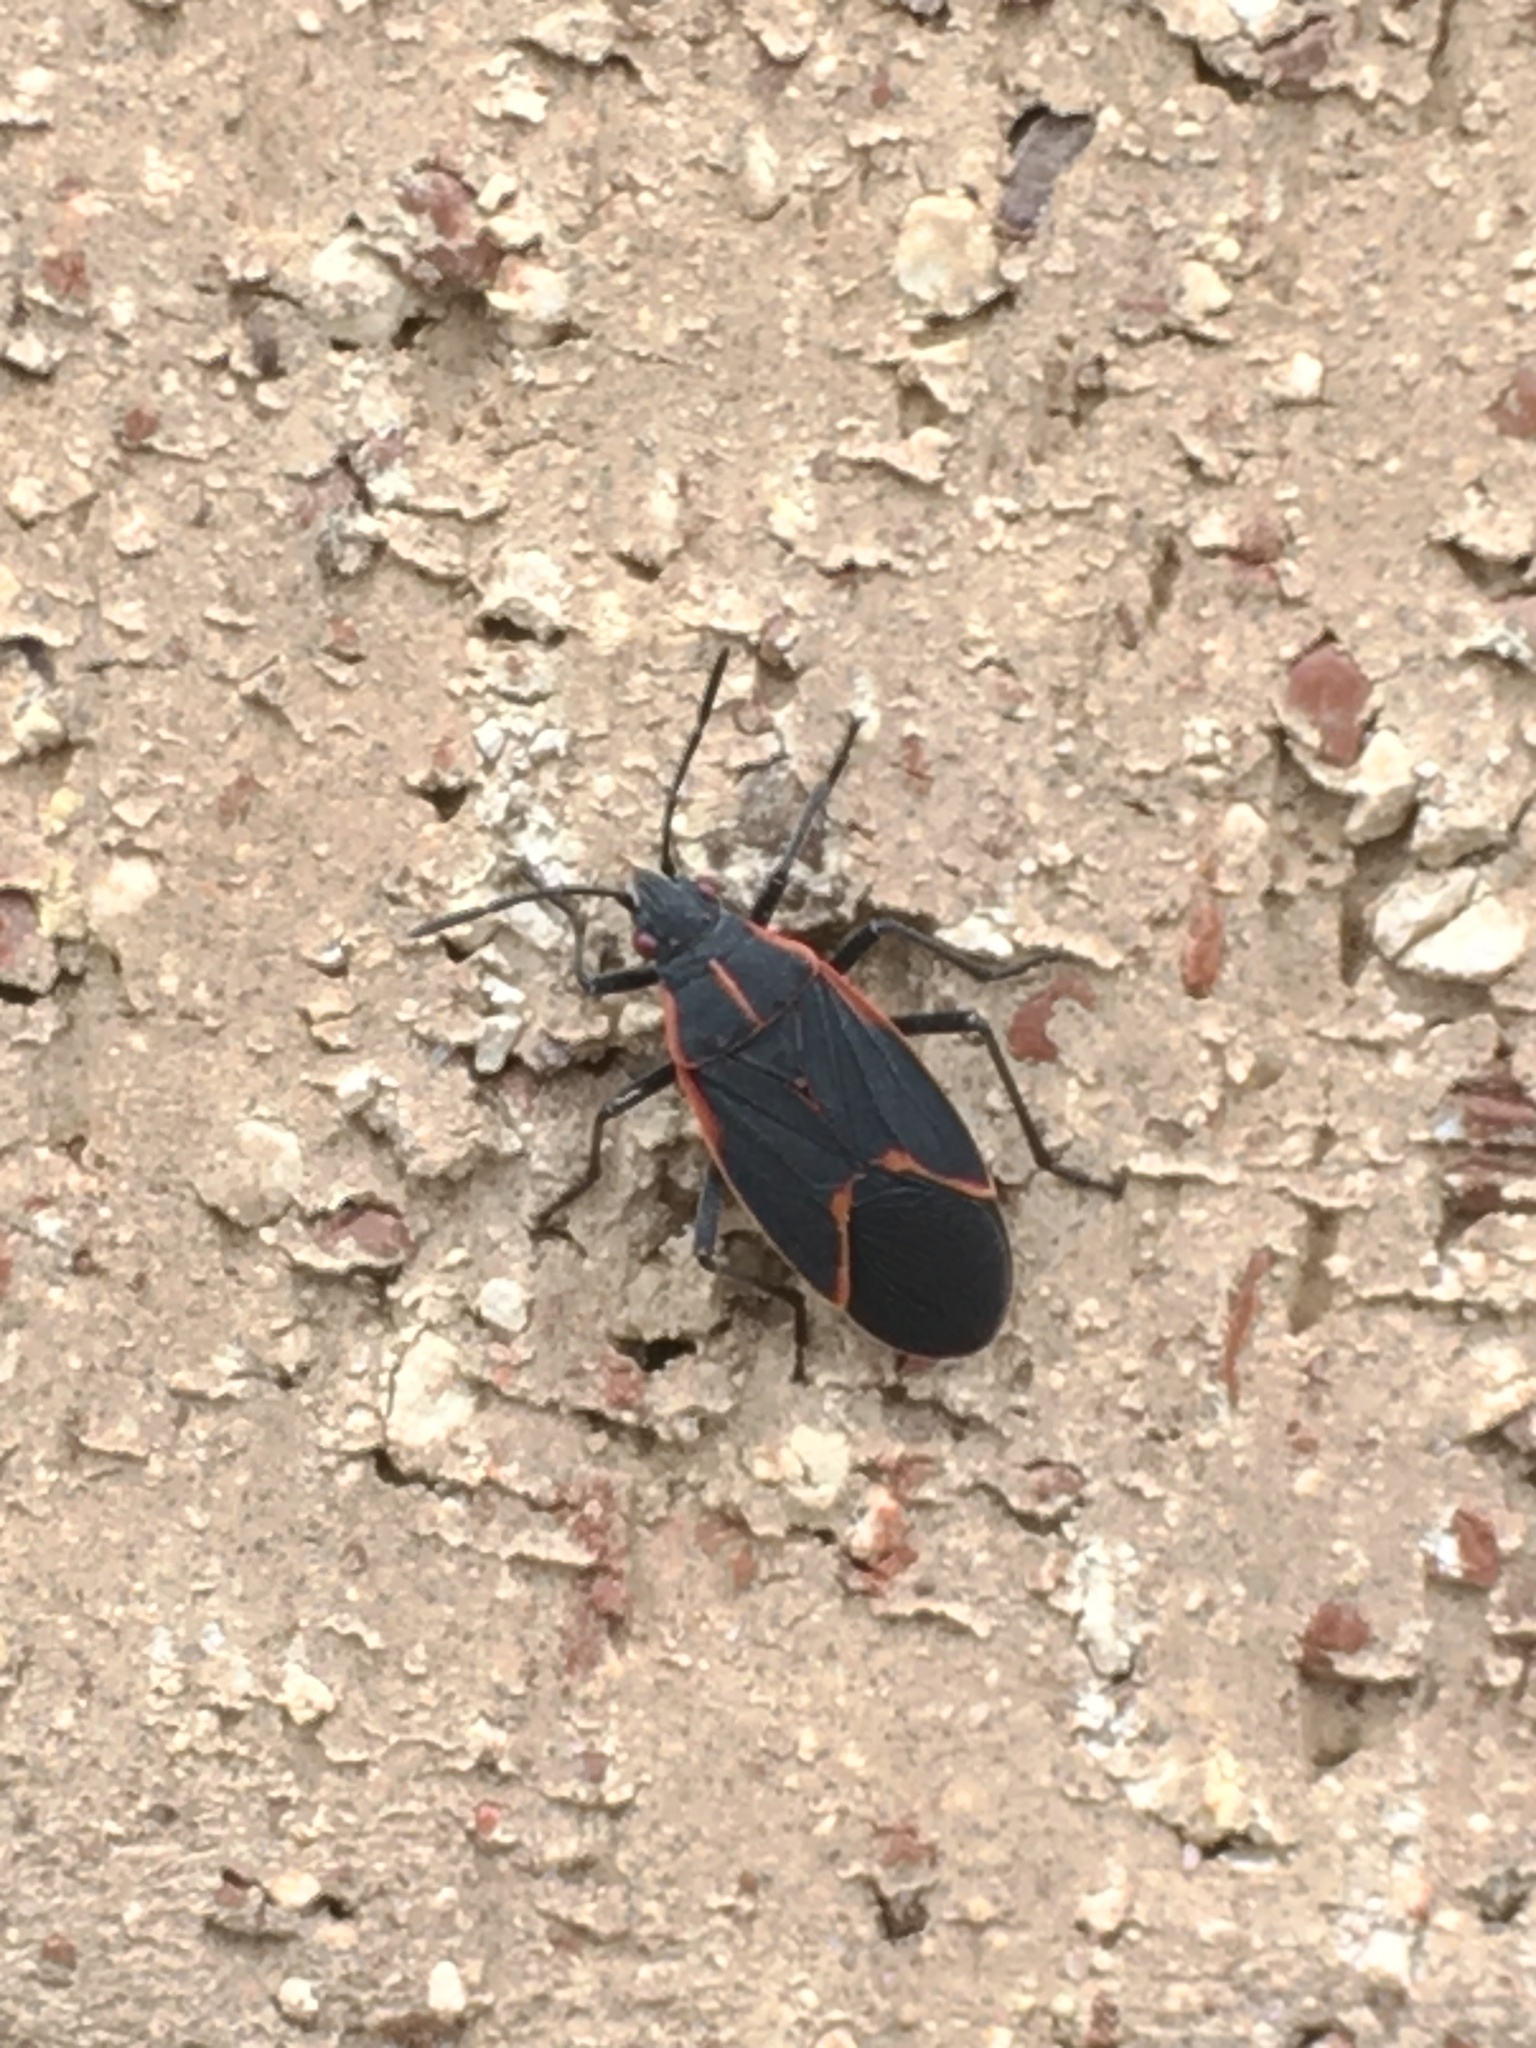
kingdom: Animalia
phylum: Arthropoda
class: Insecta
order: Hemiptera
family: Rhopalidae
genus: Boisea
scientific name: Boisea trivittata
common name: Boxelder bug
